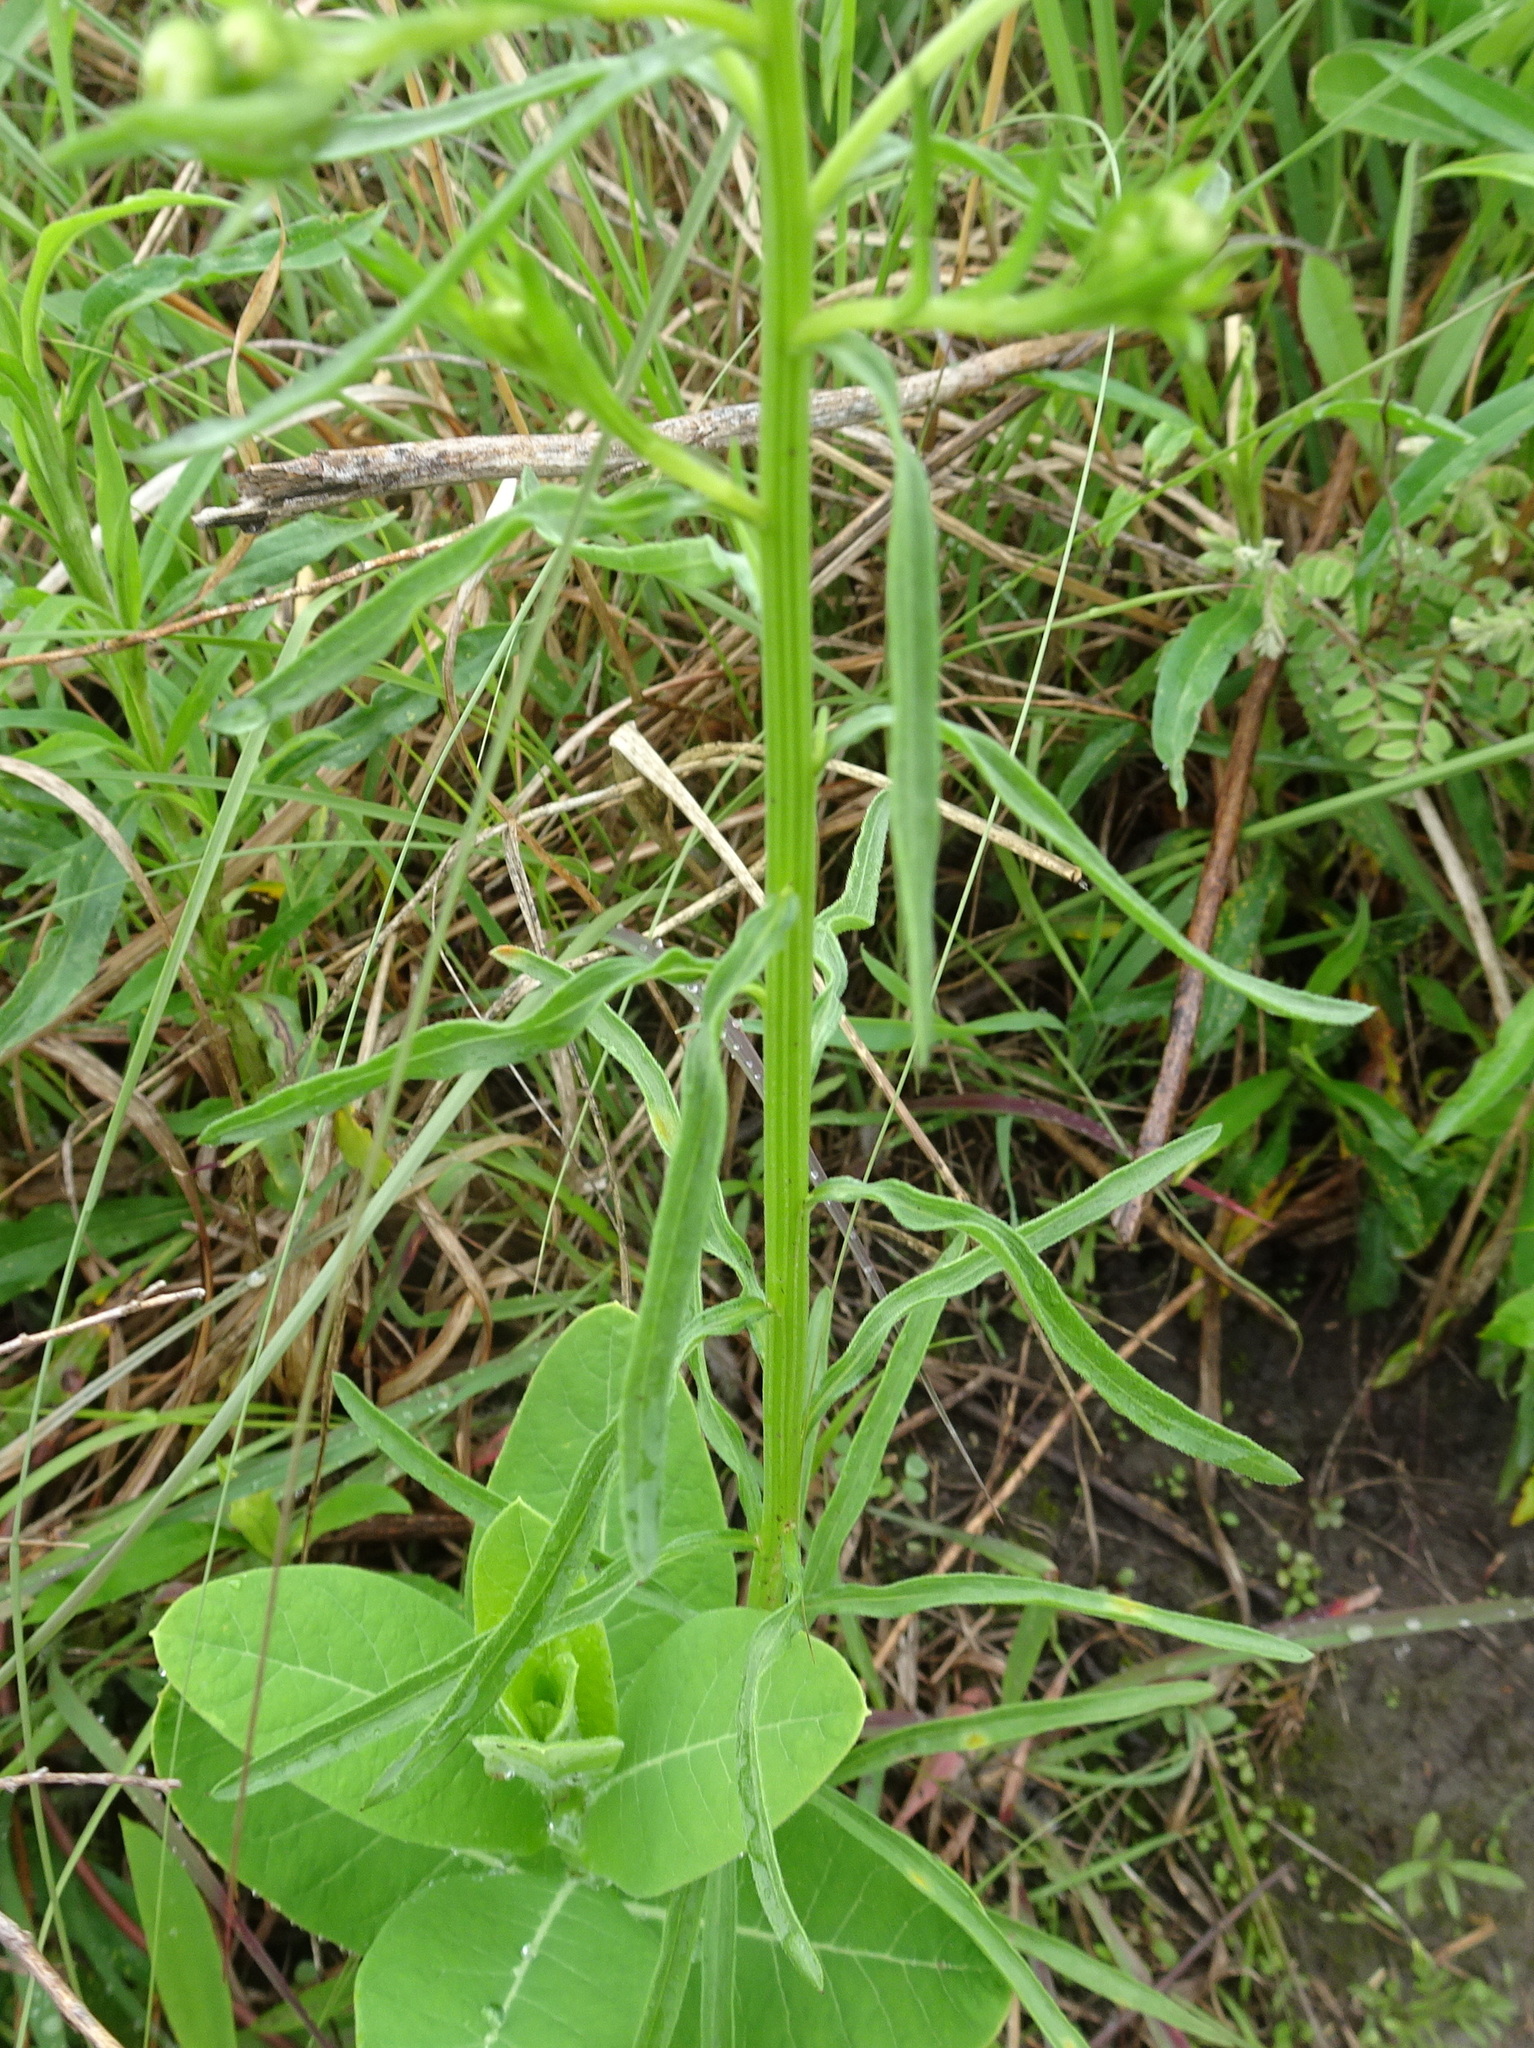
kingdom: Plantae
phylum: Tracheophyta
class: Magnoliopsida
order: Asterales
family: Asteraceae
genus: Erigeron
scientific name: Erigeron strigosus
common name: Common eastern fleabane
